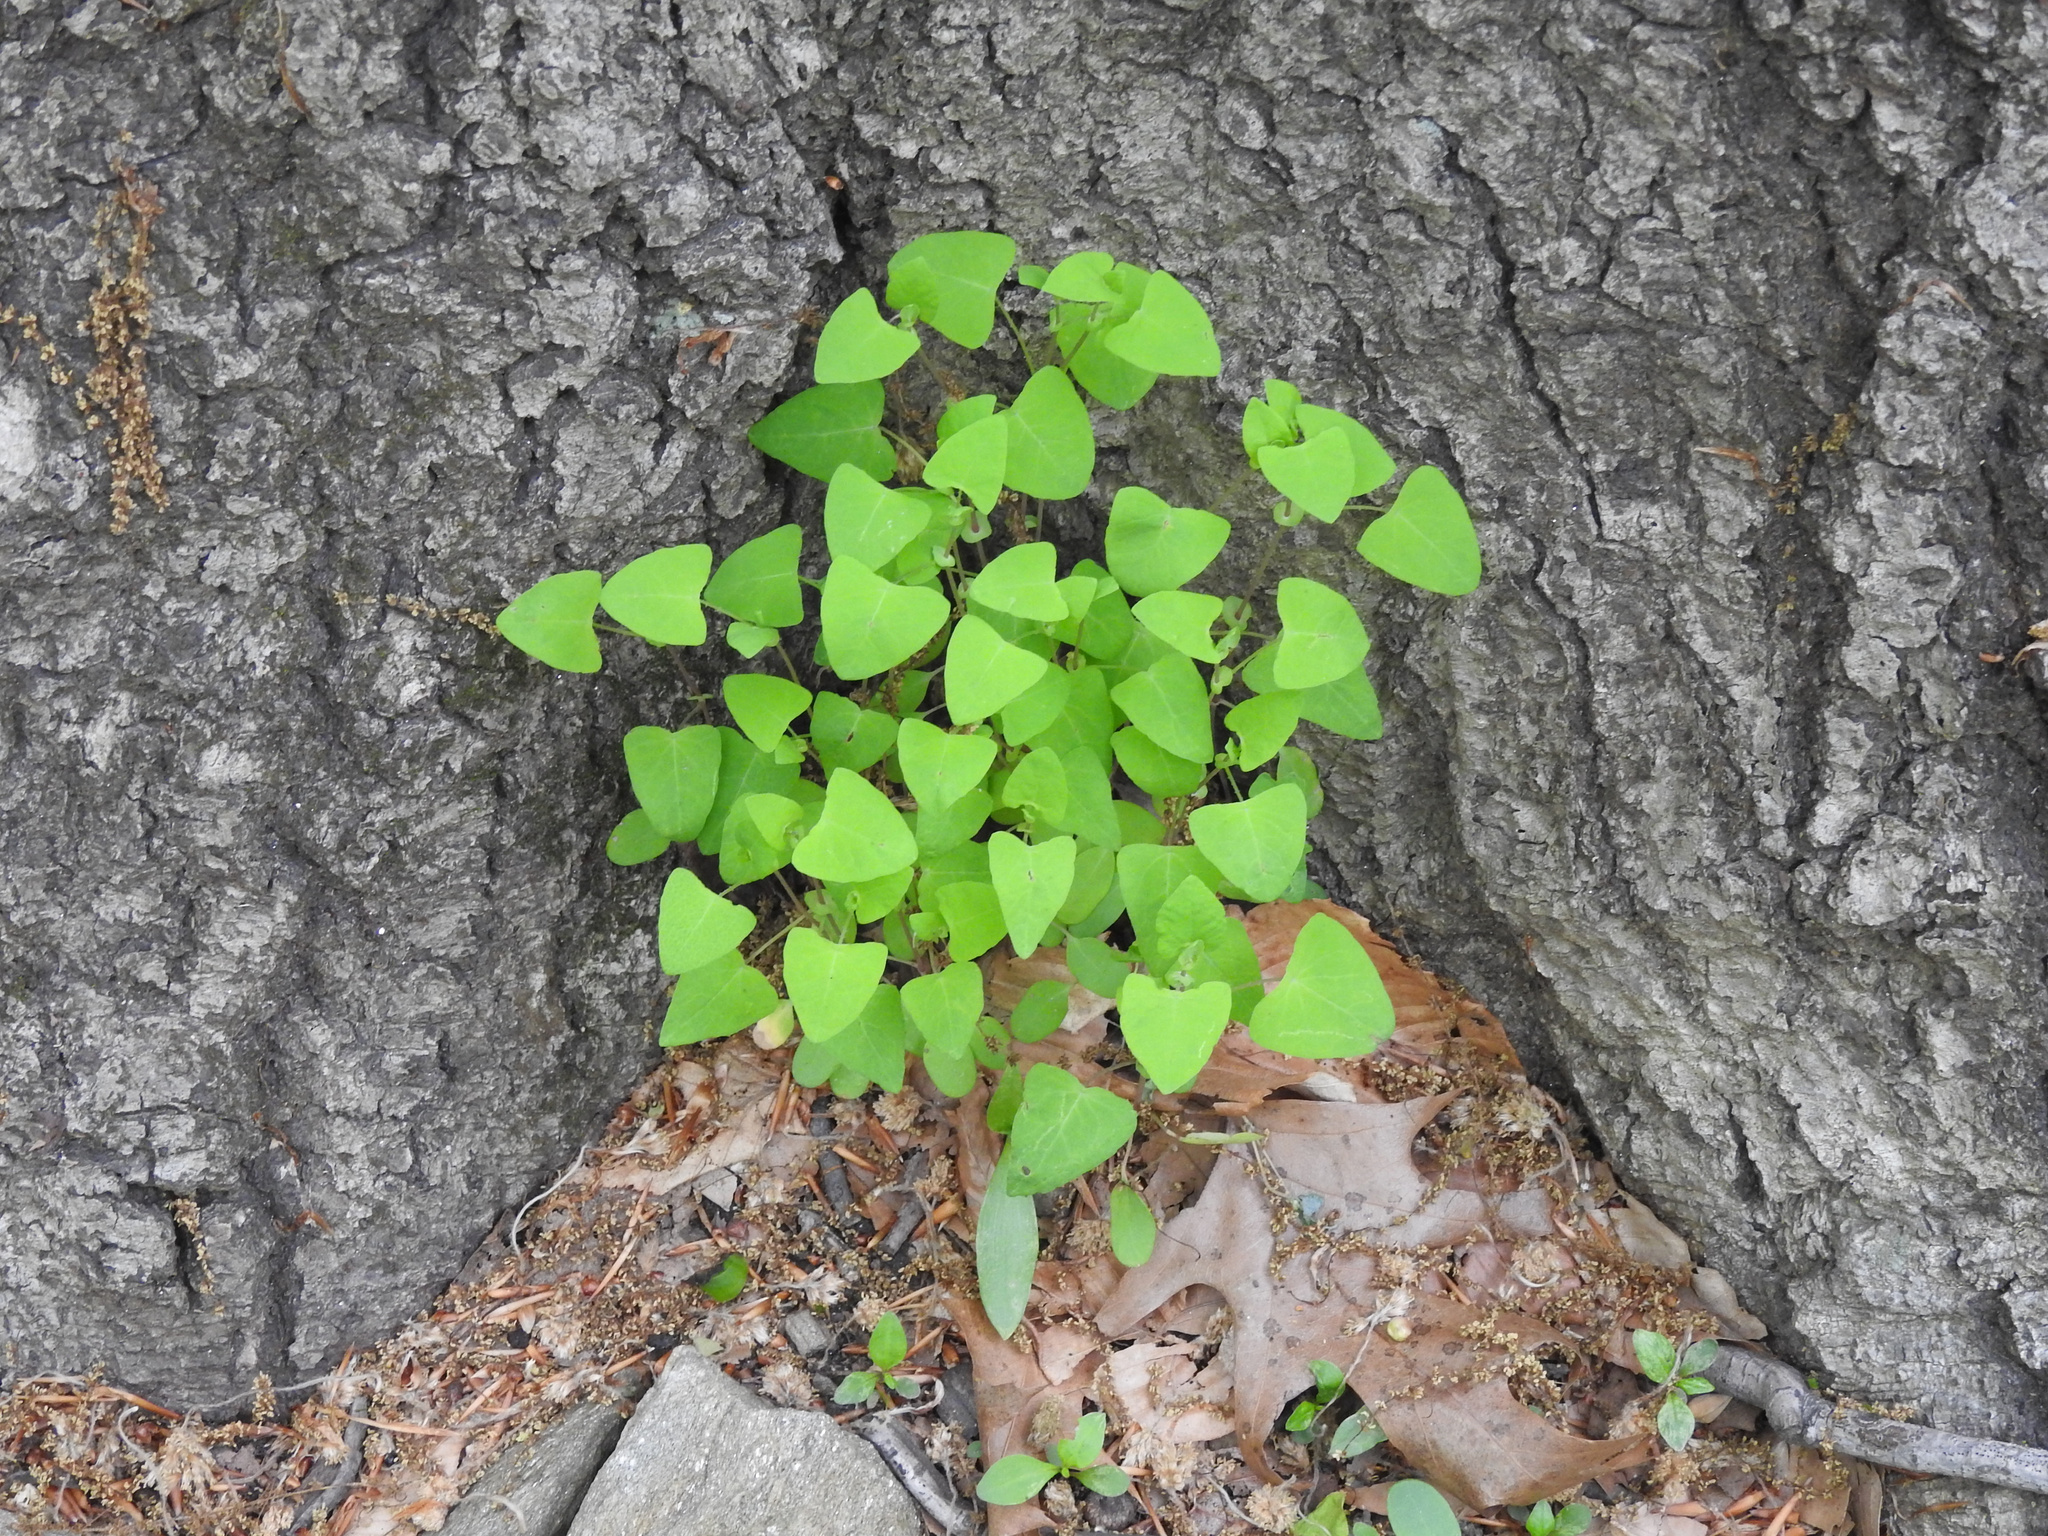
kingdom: Plantae
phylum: Tracheophyta
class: Magnoliopsida
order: Caryophyllales
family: Polygonaceae
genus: Persicaria
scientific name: Persicaria perfoliata
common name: Asiatic tearthumb
